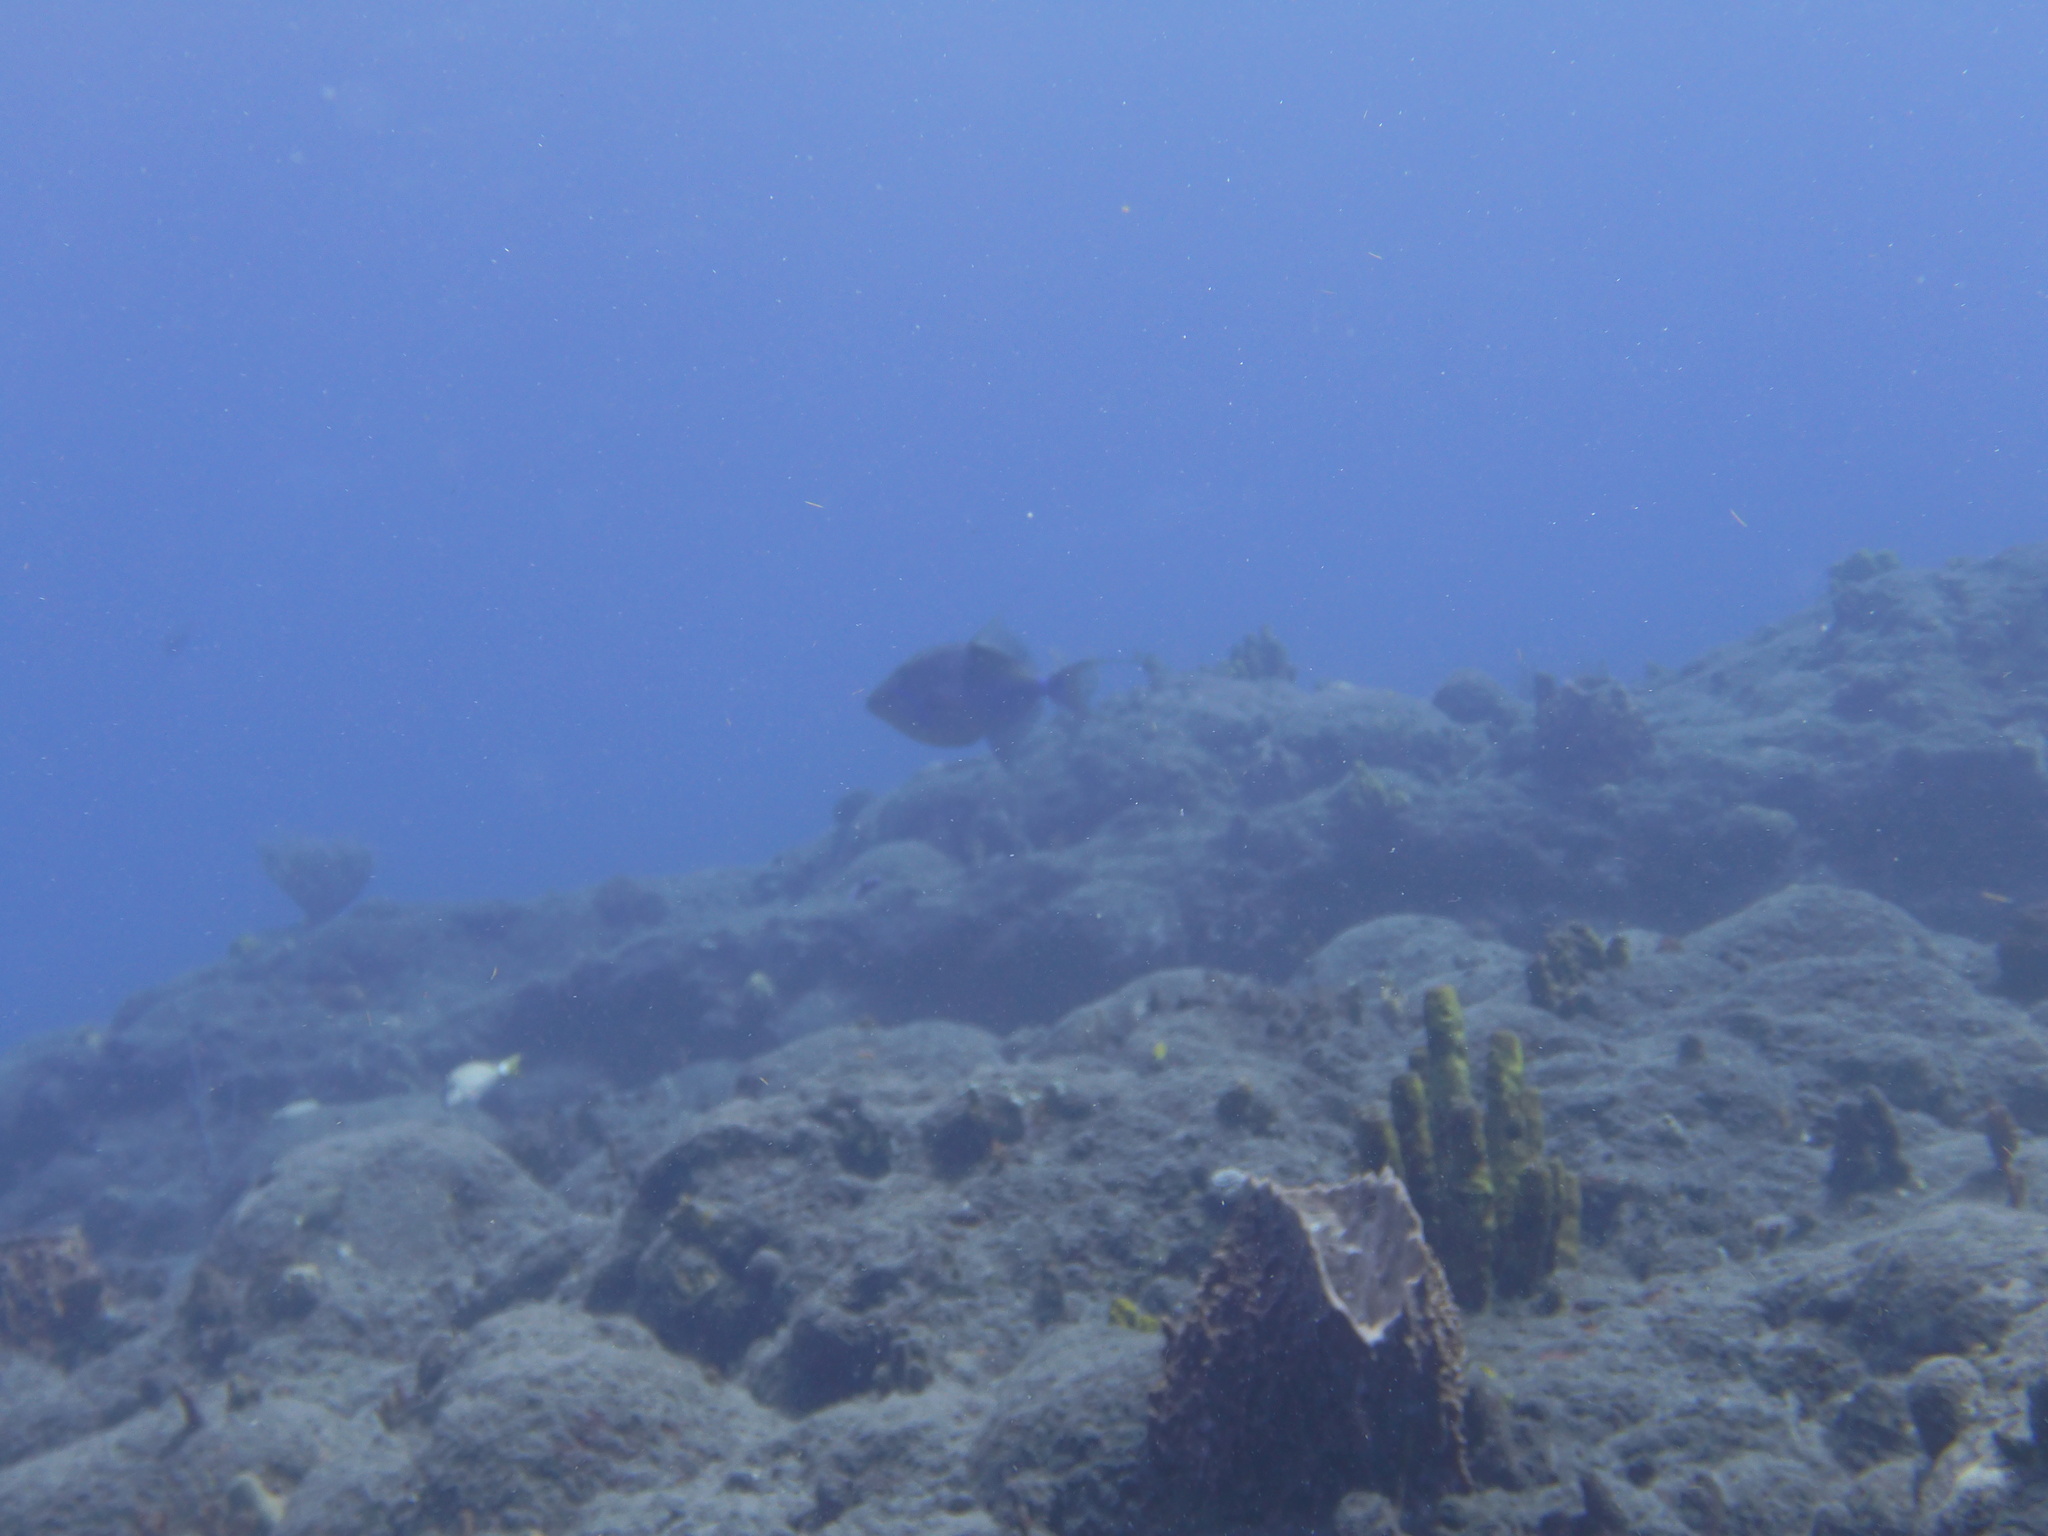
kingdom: Animalia
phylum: Chordata
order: Tetraodontiformes
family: Balistidae
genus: Balistes
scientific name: Balistes vetula
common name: Queen triggerfish
